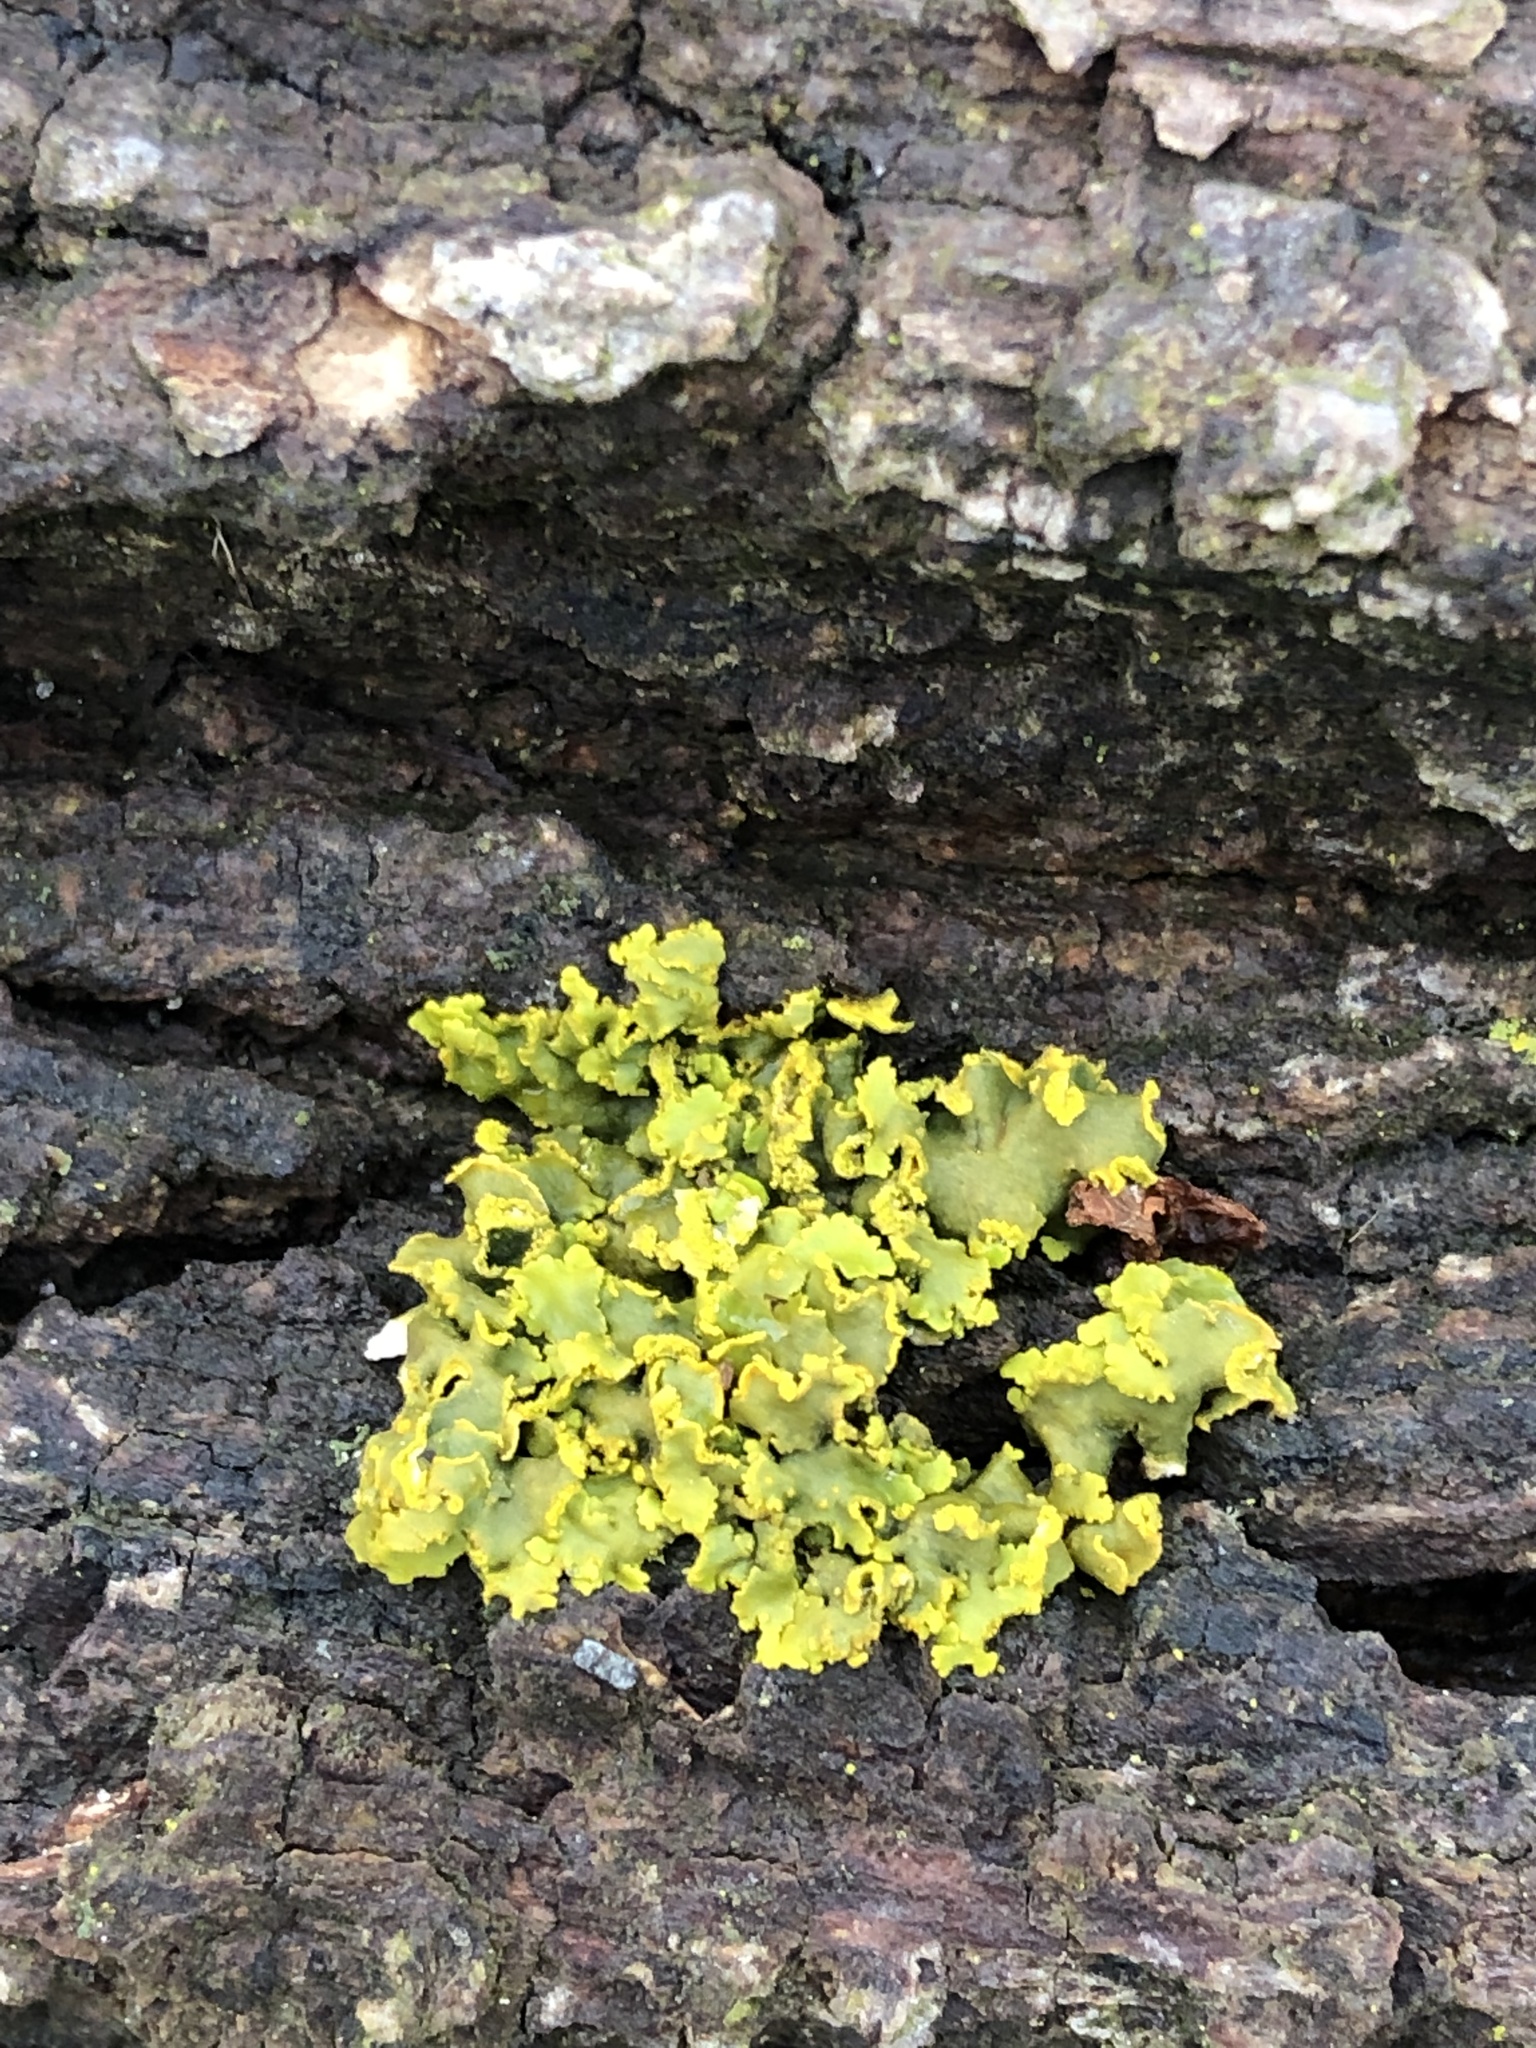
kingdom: Fungi
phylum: Ascomycota
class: Lecanoromycetes
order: Teloschistales
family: Teloschistaceae
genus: Xanthoria
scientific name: Xanthoria ulophyllodes
